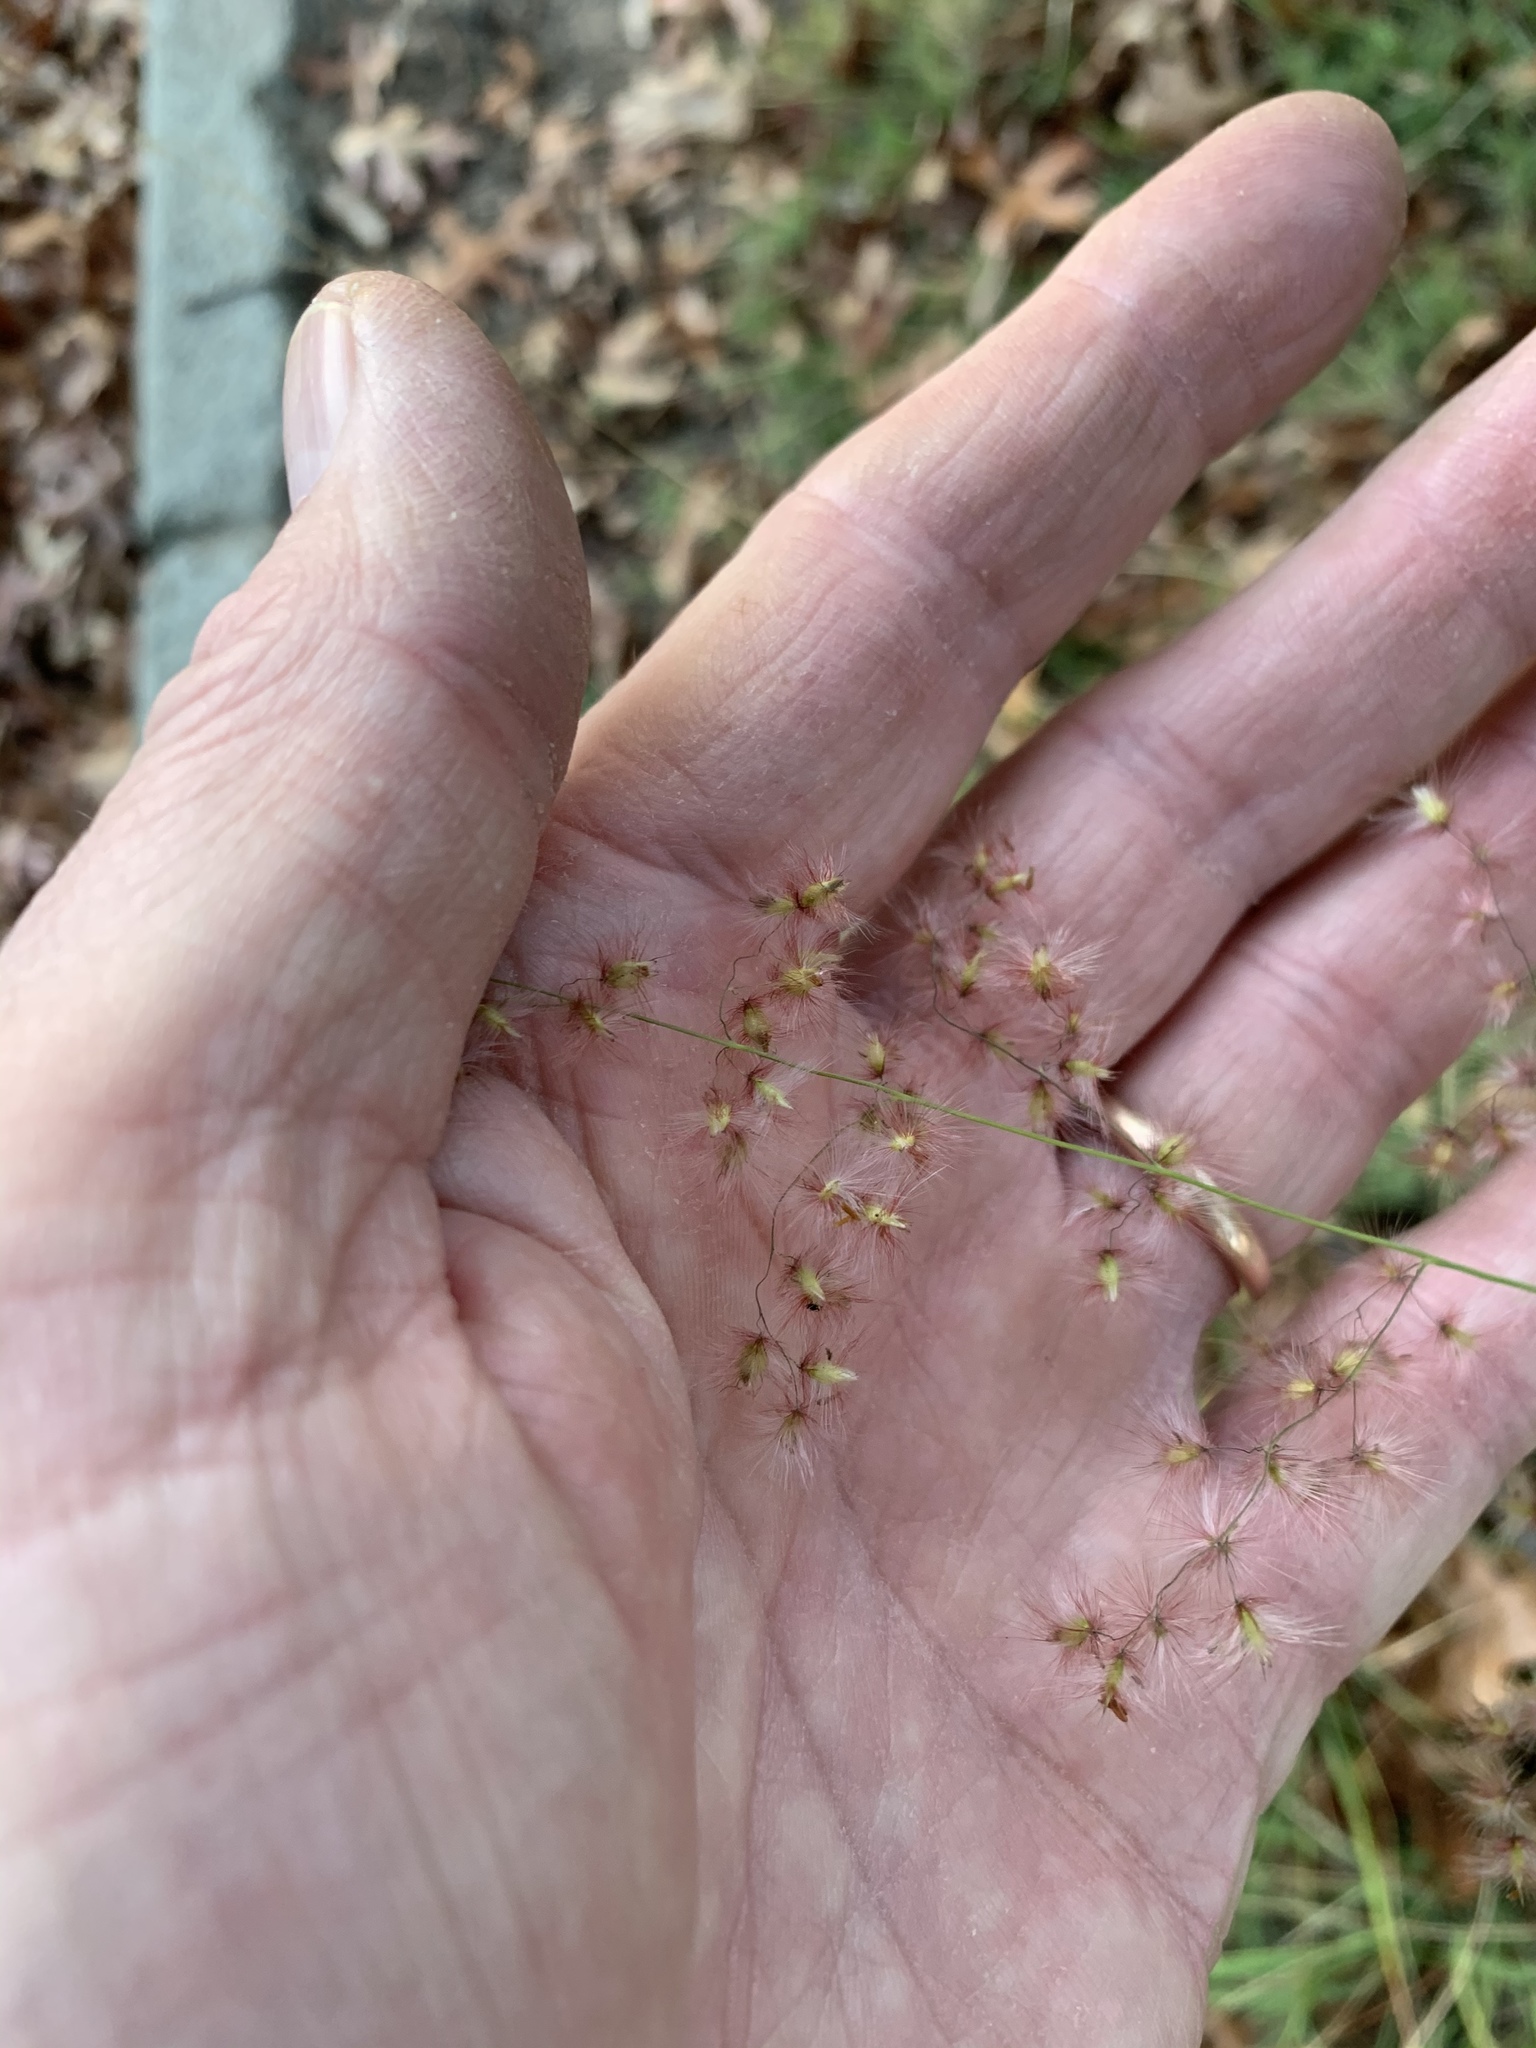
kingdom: Plantae
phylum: Tracheophyta
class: Liliopsida
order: Poales
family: Poaceae
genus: Melinis
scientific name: Melinis repens
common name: Rose natal grass
